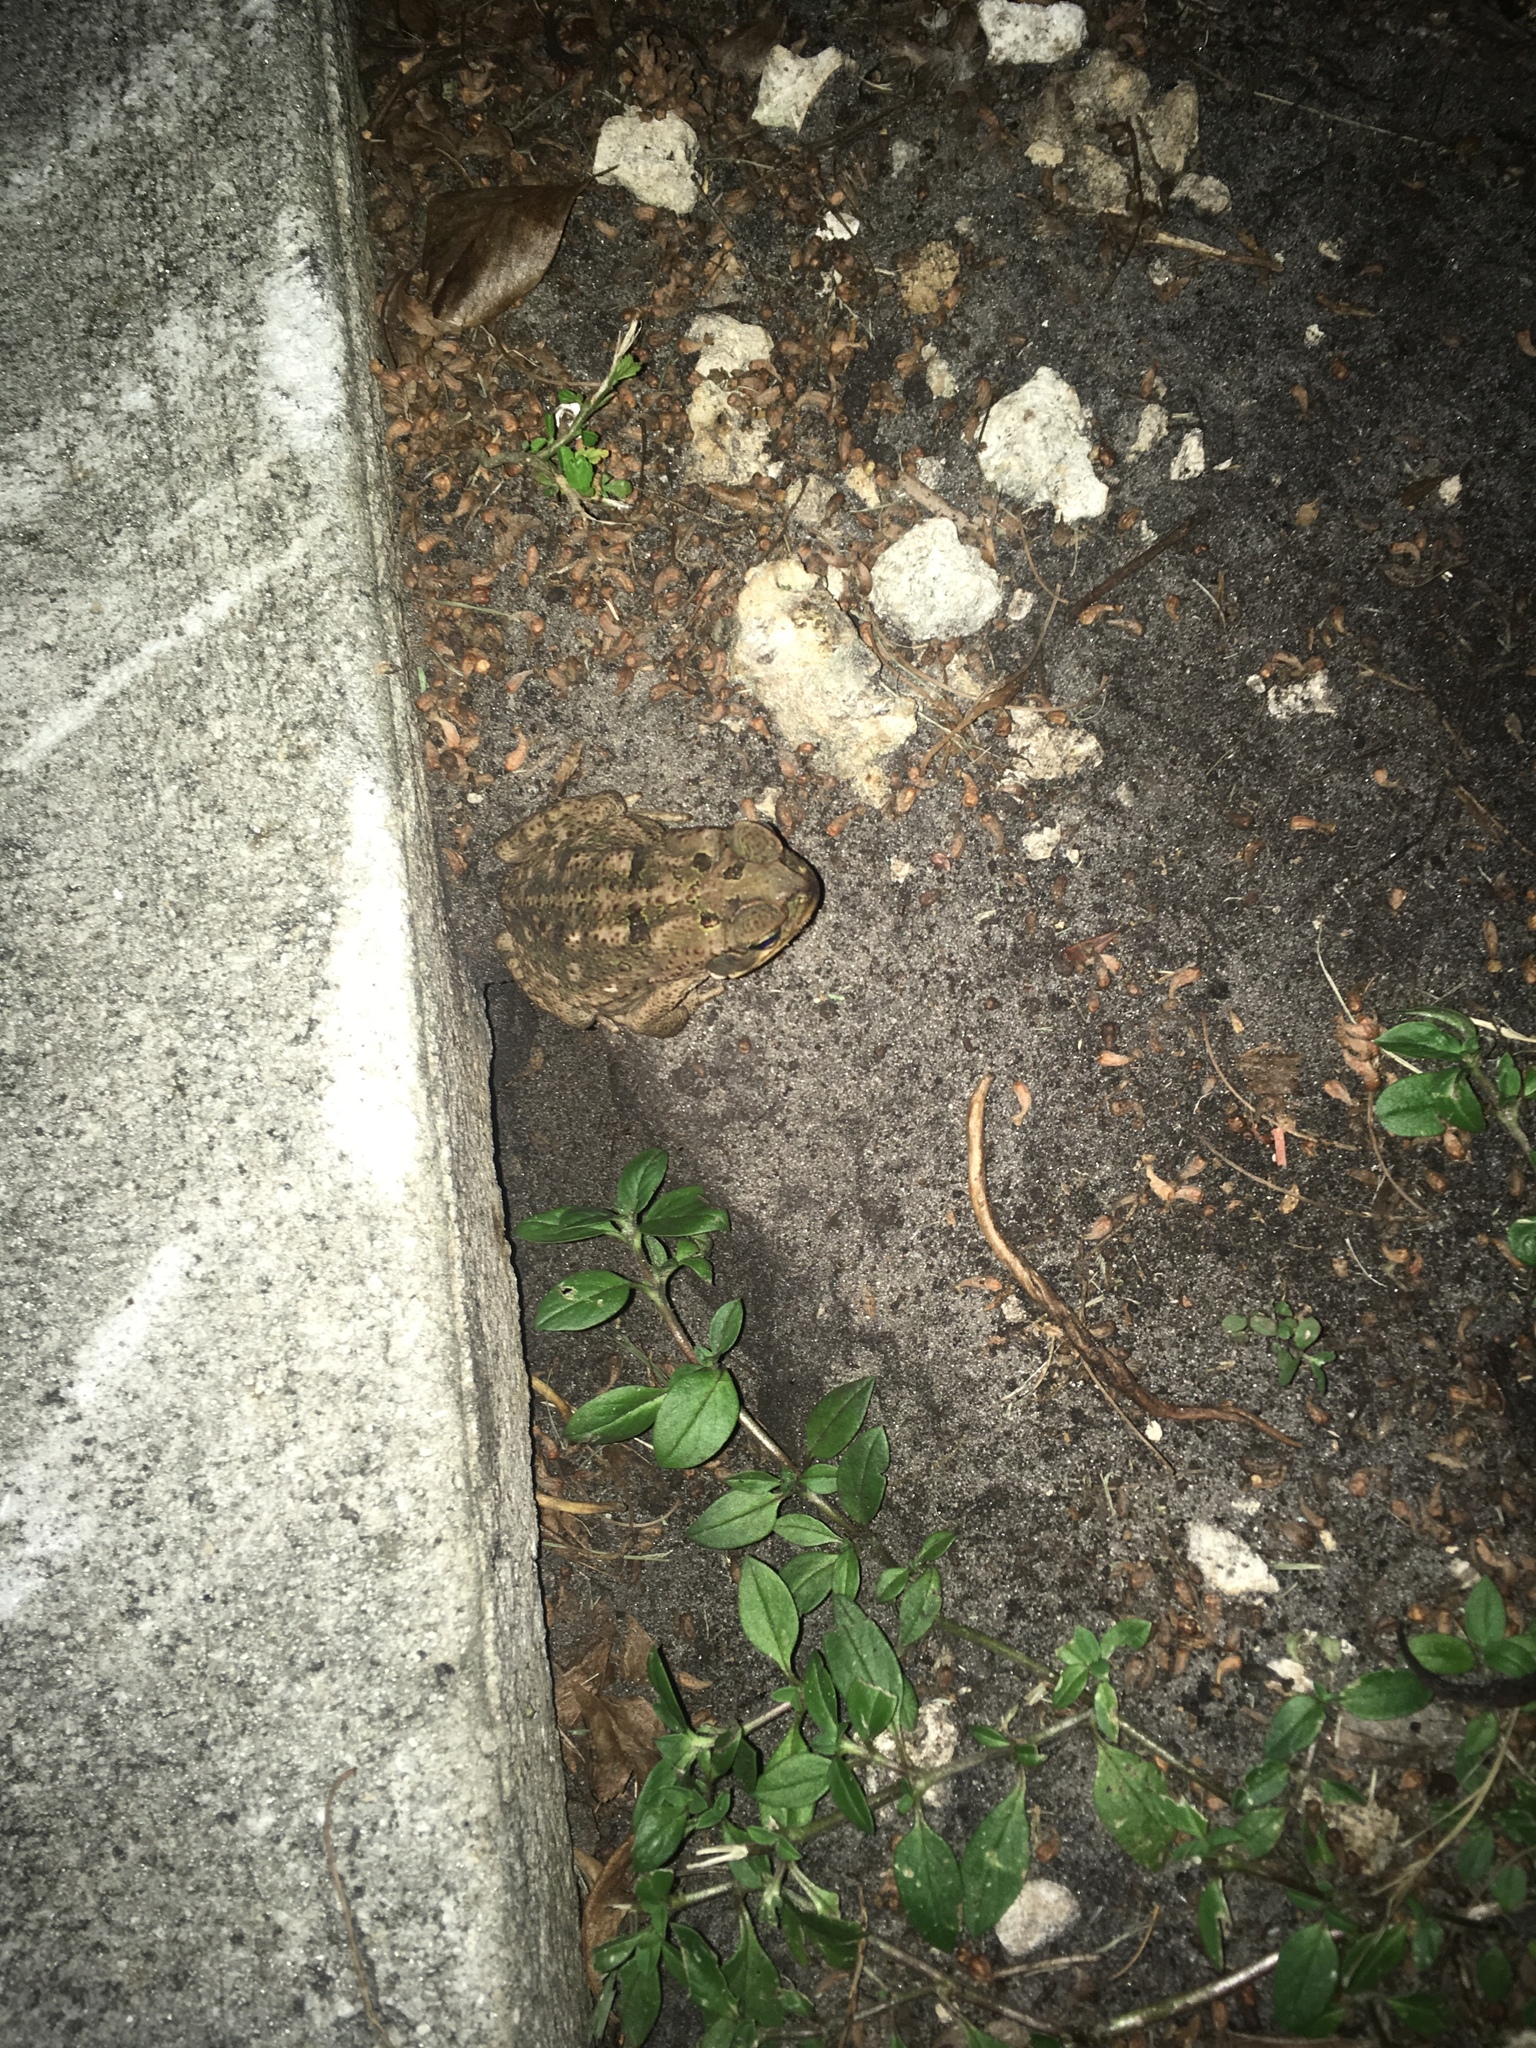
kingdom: Animalia
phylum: Chordata
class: Amphibia
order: Anura
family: Bufonidae
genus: Rhinella
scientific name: Rhinella marina
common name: Cane toad
